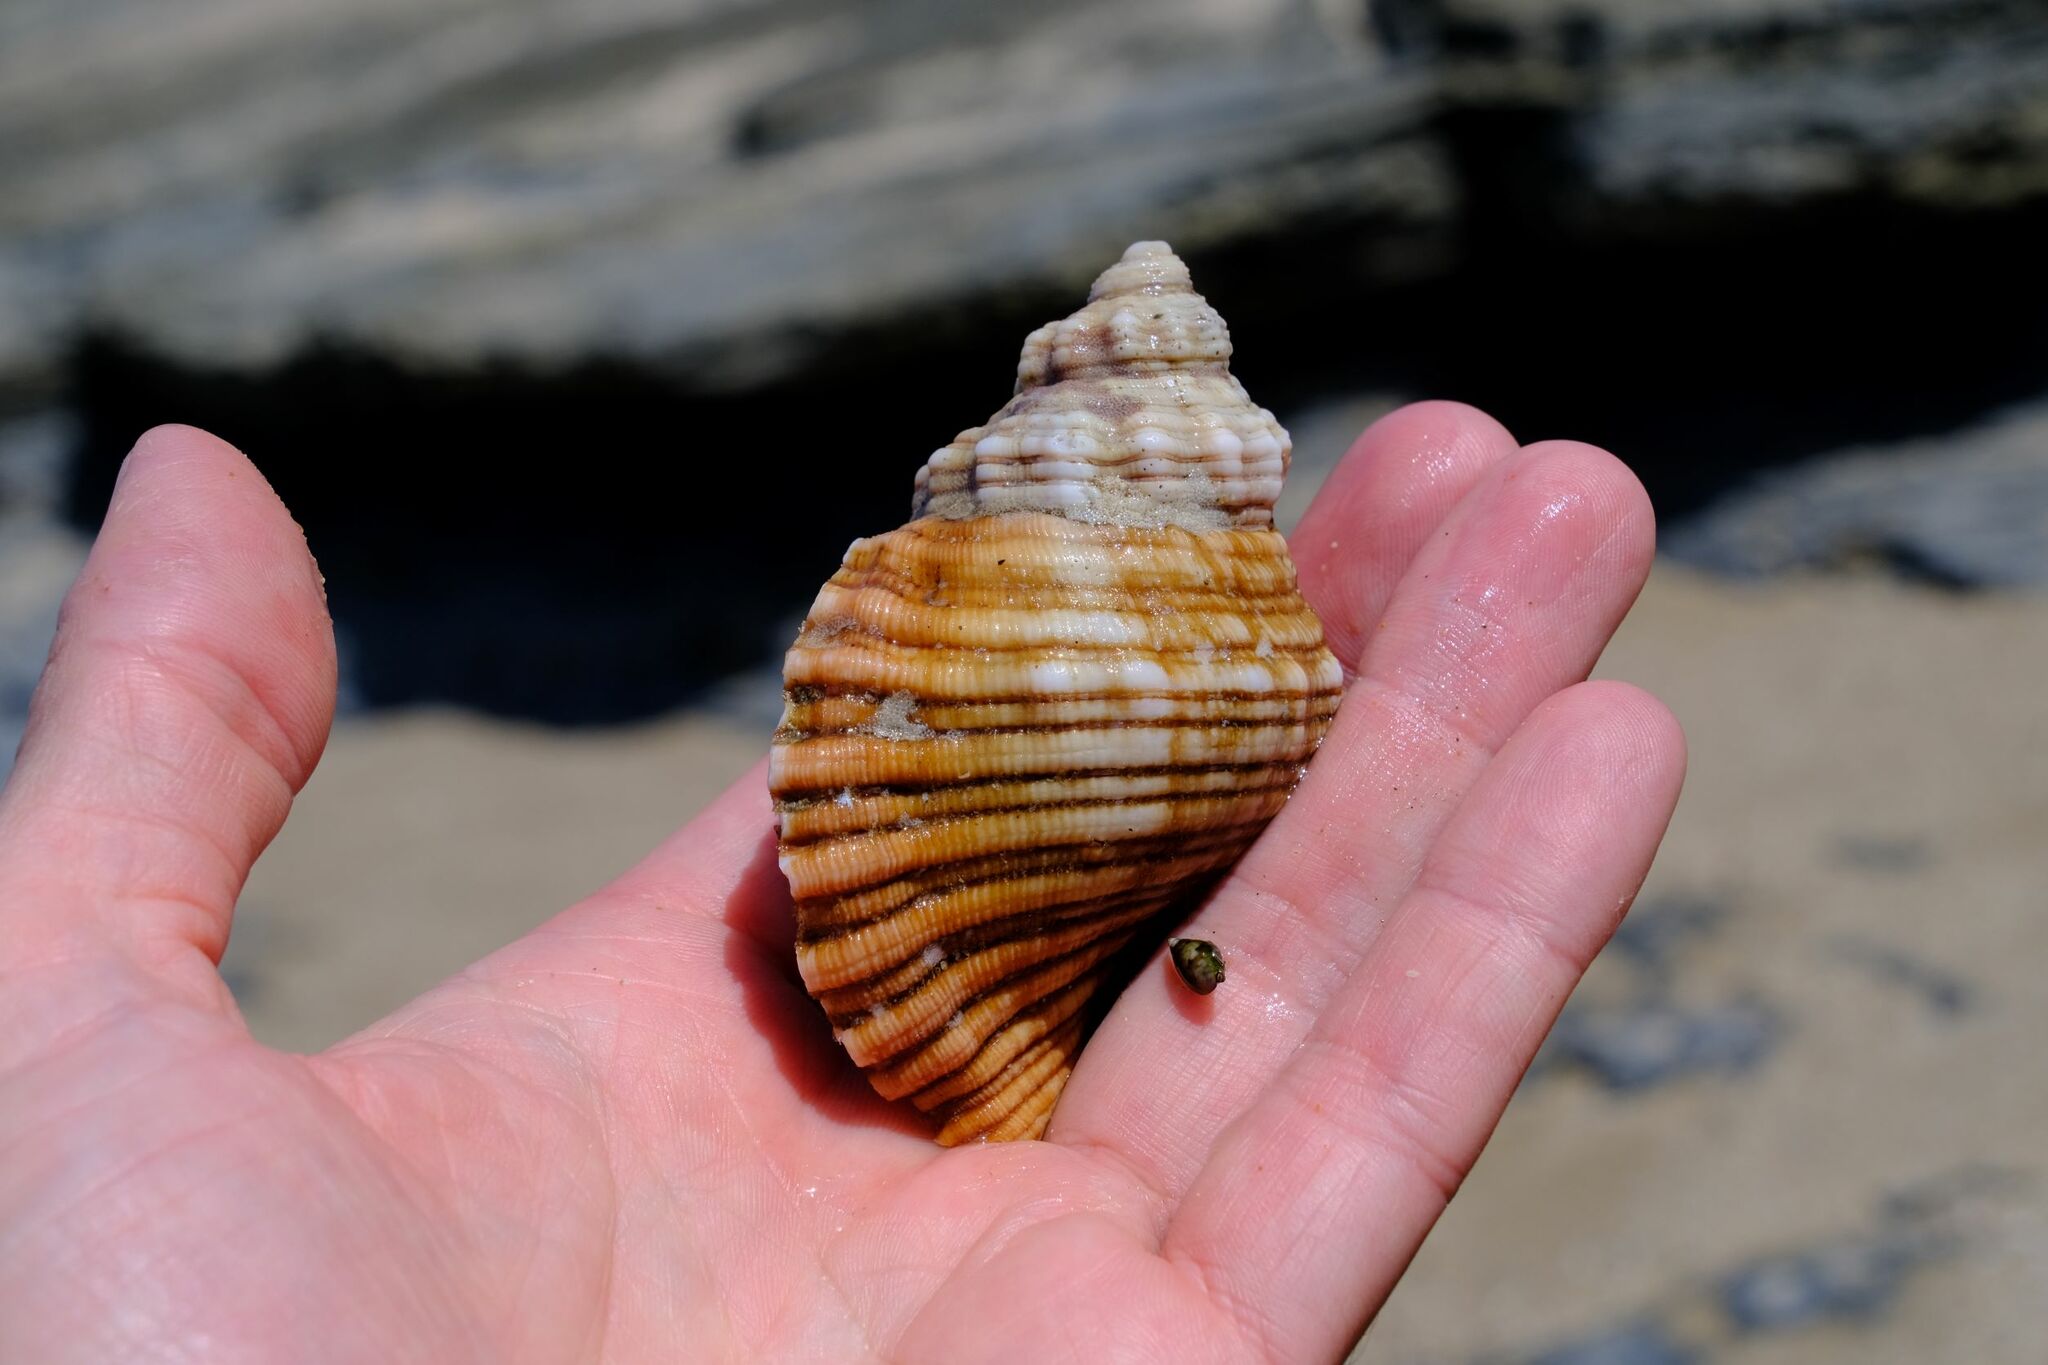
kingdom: Animalia
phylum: Mollusca
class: Gastropoda
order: Littorinimorpha
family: Cymatiidae
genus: Cabestana
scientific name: Cabestana spengleri
